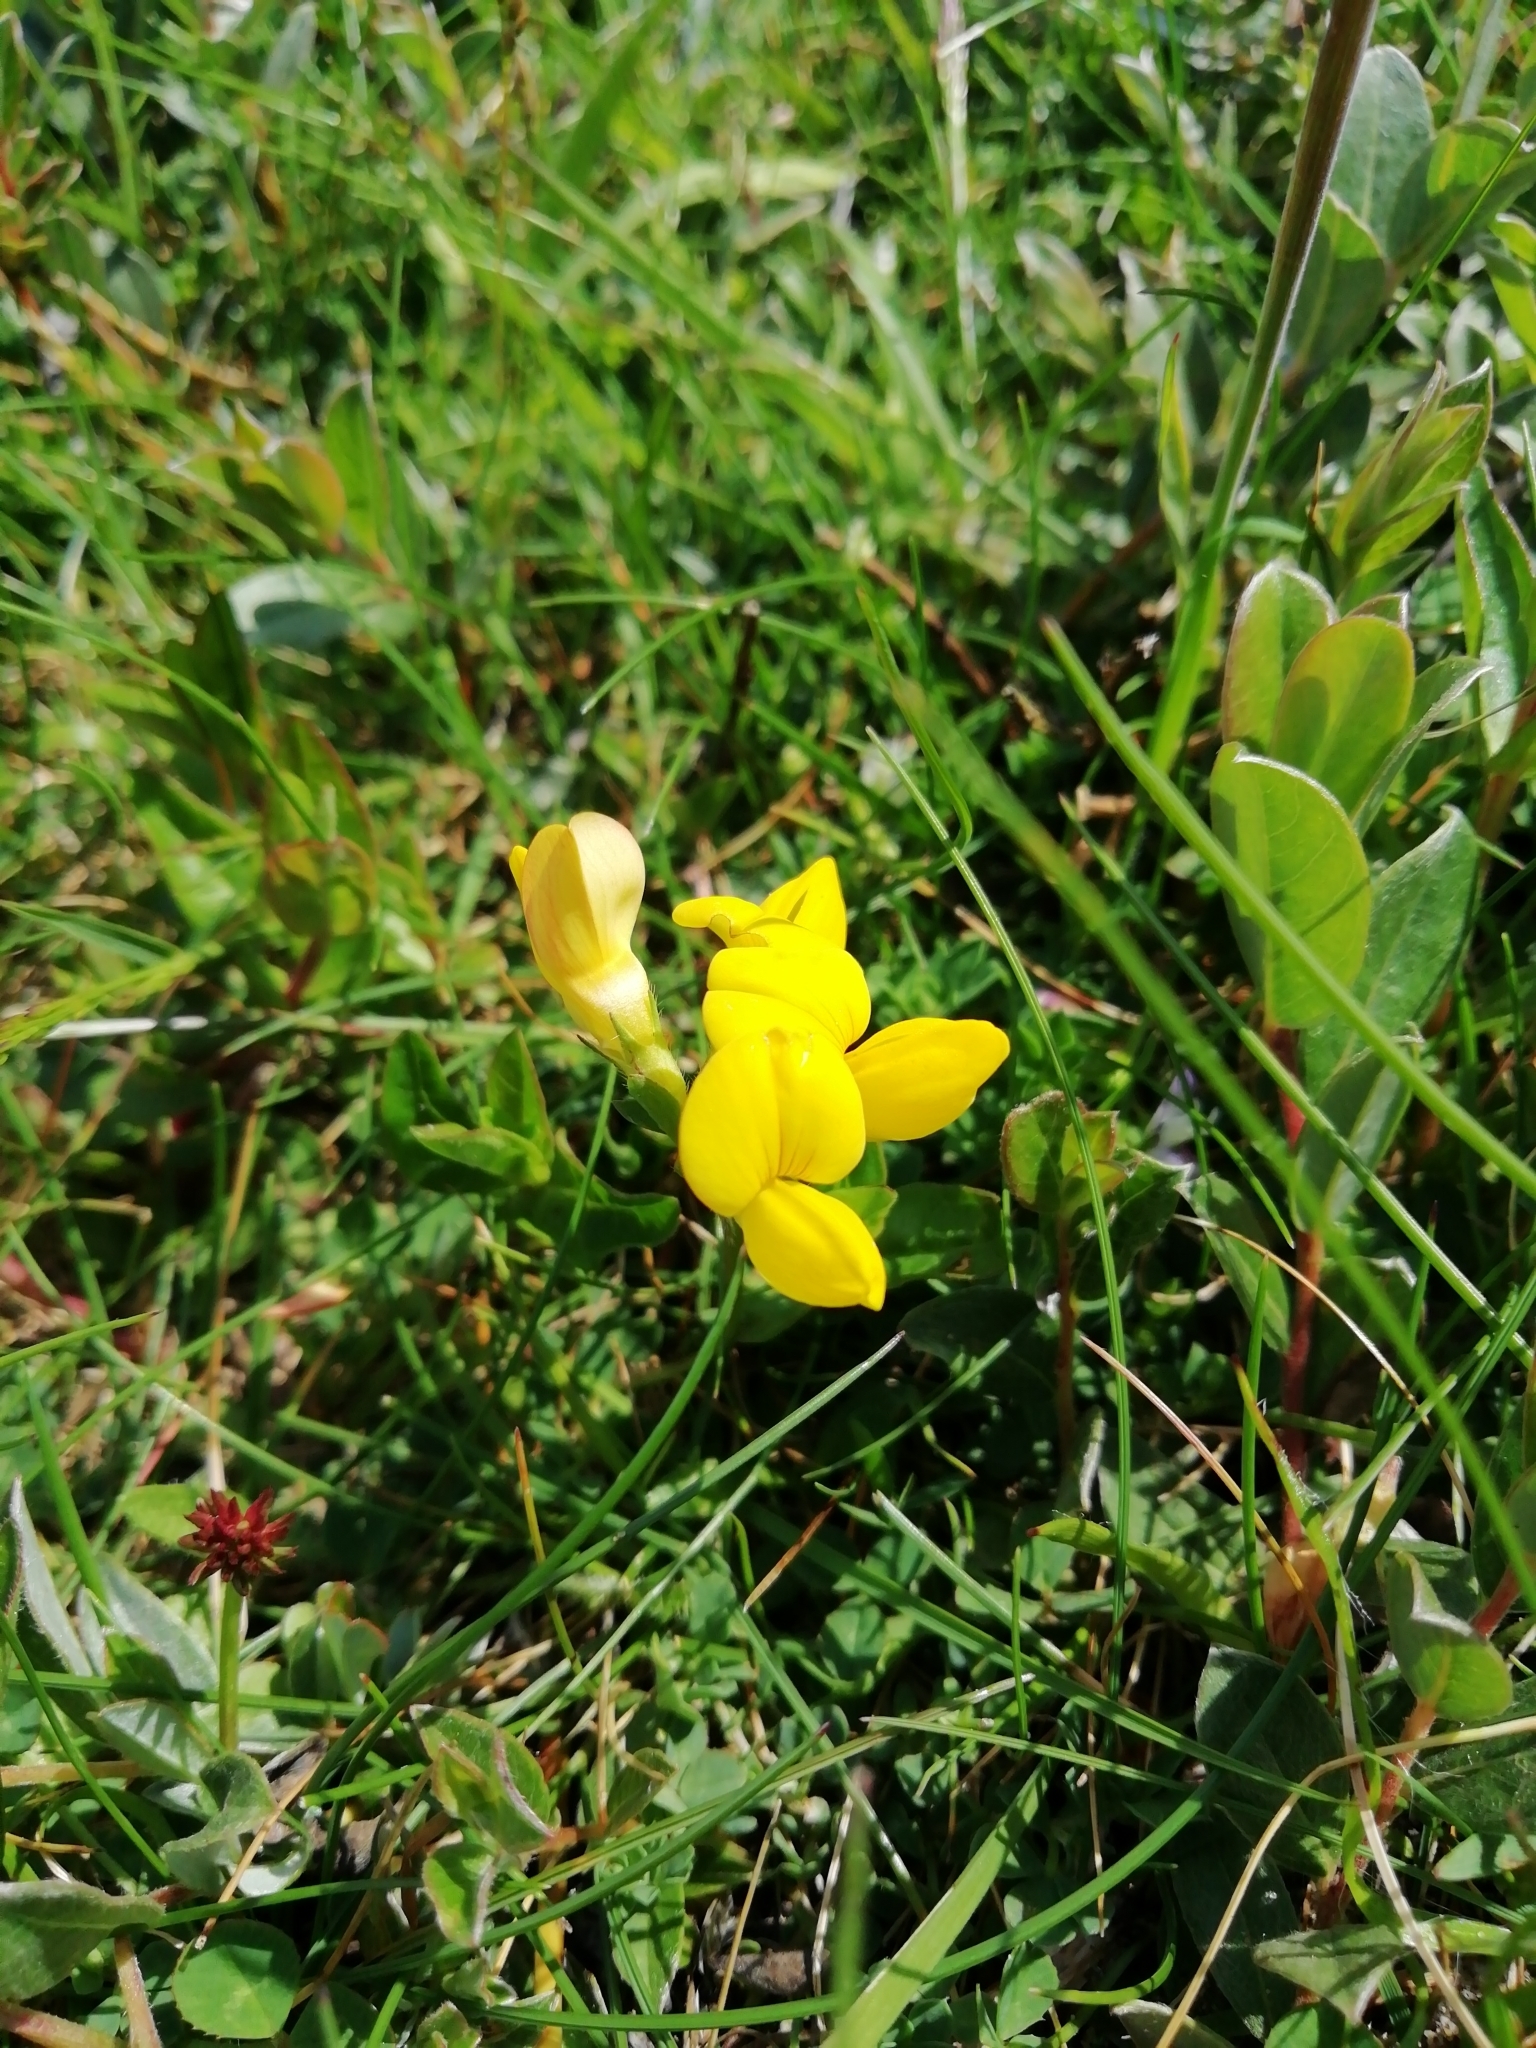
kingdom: Plantae
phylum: Tracheophyta
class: Magnoliopsida
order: Fabales
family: Fabaceae
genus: Lotus
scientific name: Lotus corniculatus
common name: Common bird's-foot-trefoil
